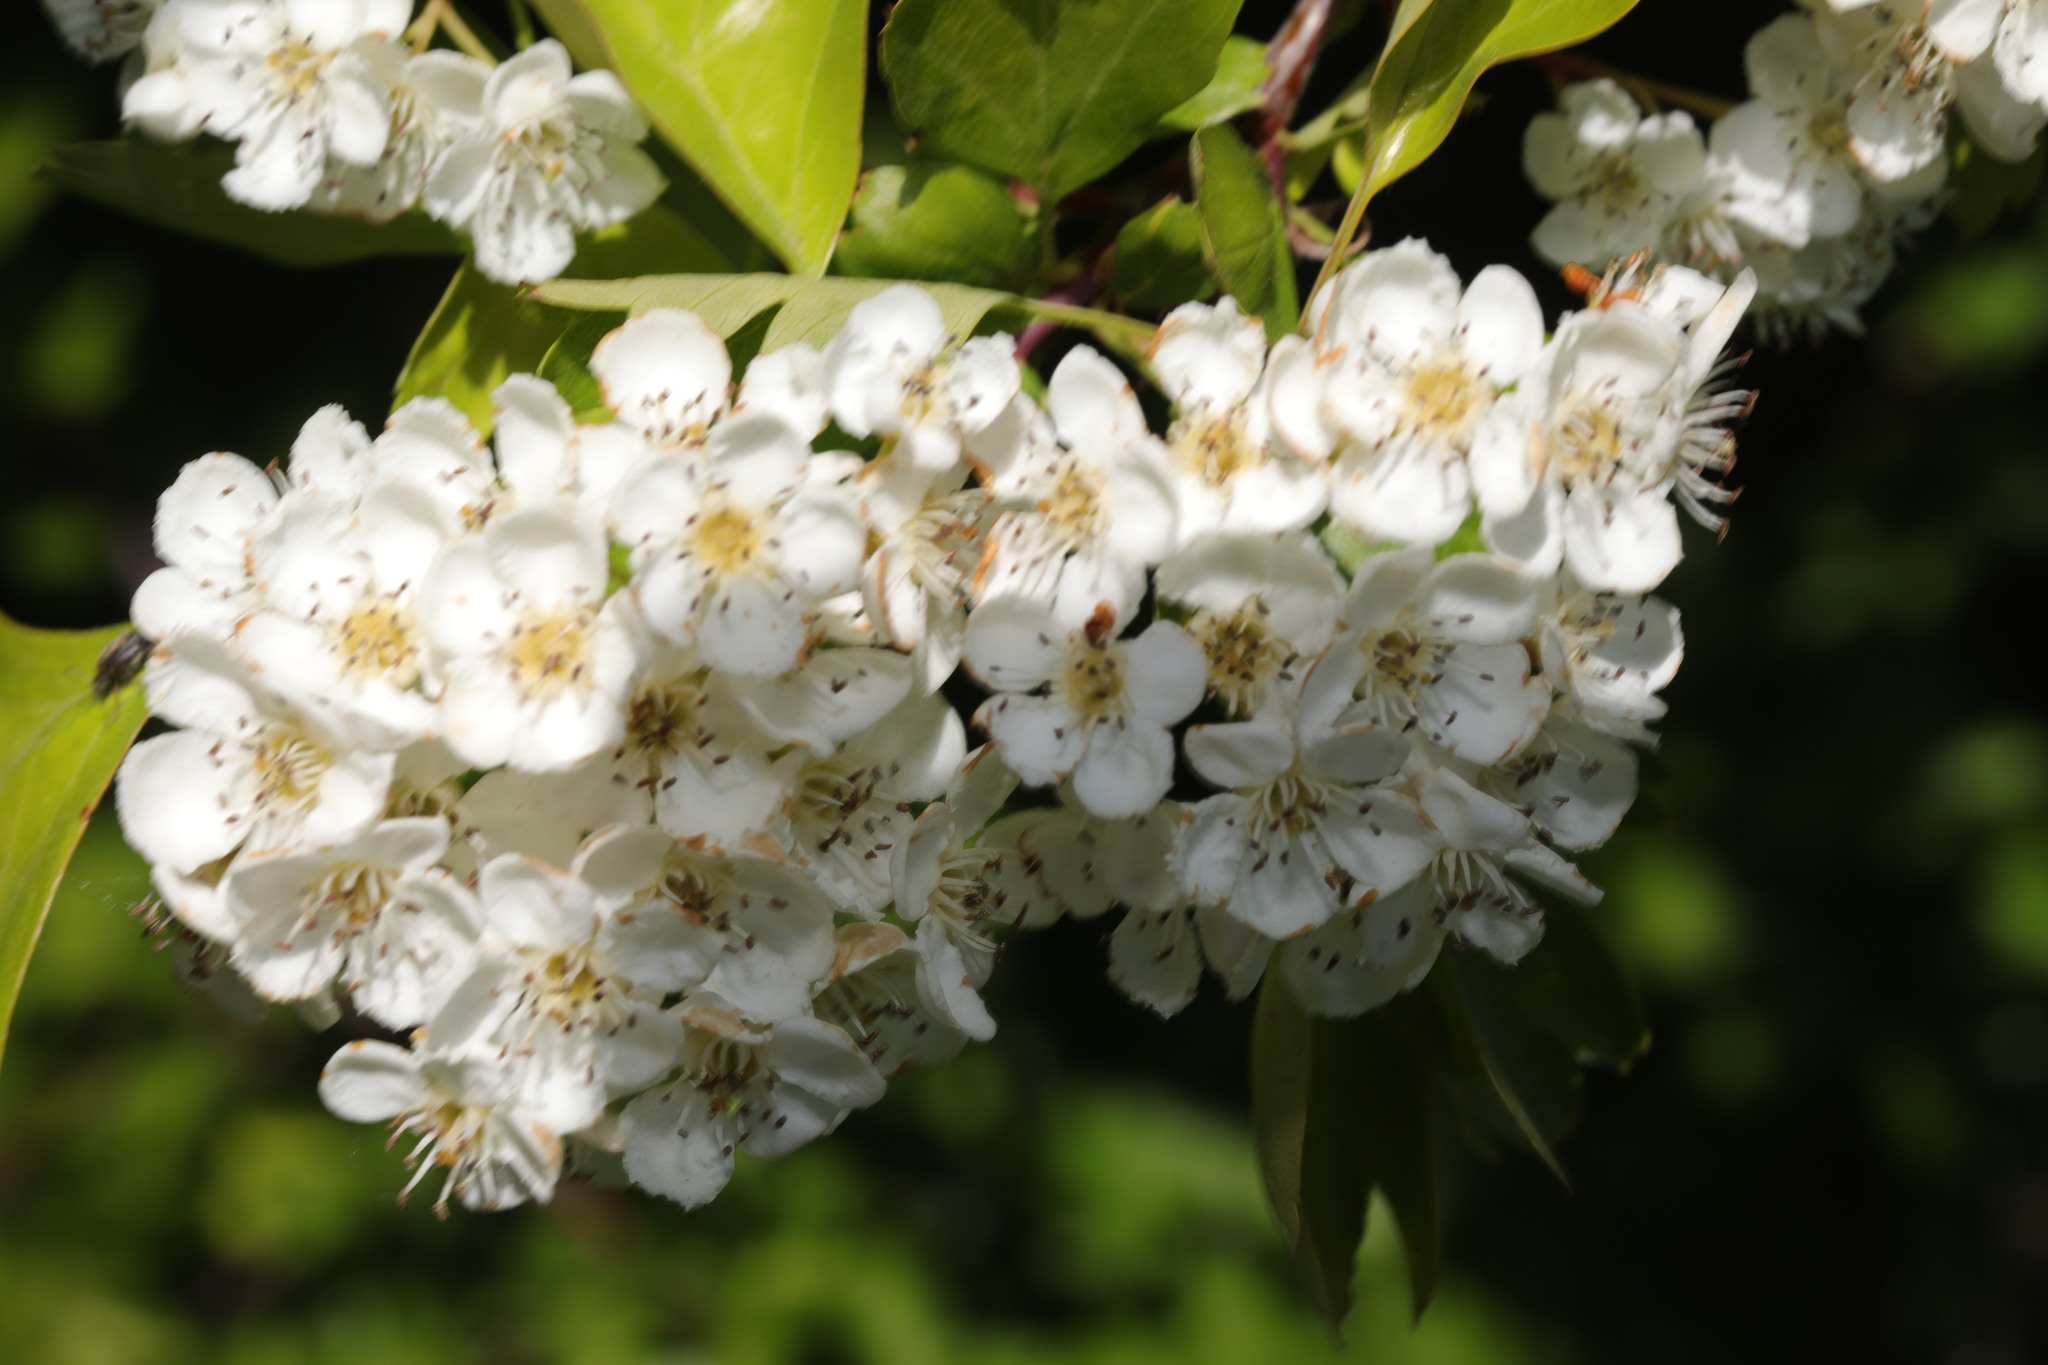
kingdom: Plantae
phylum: Tracheophyta
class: Magnoliopsida
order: Rosales
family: Rosaceae
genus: Crataegus
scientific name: Crataegus monogyna
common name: Hawthorn
